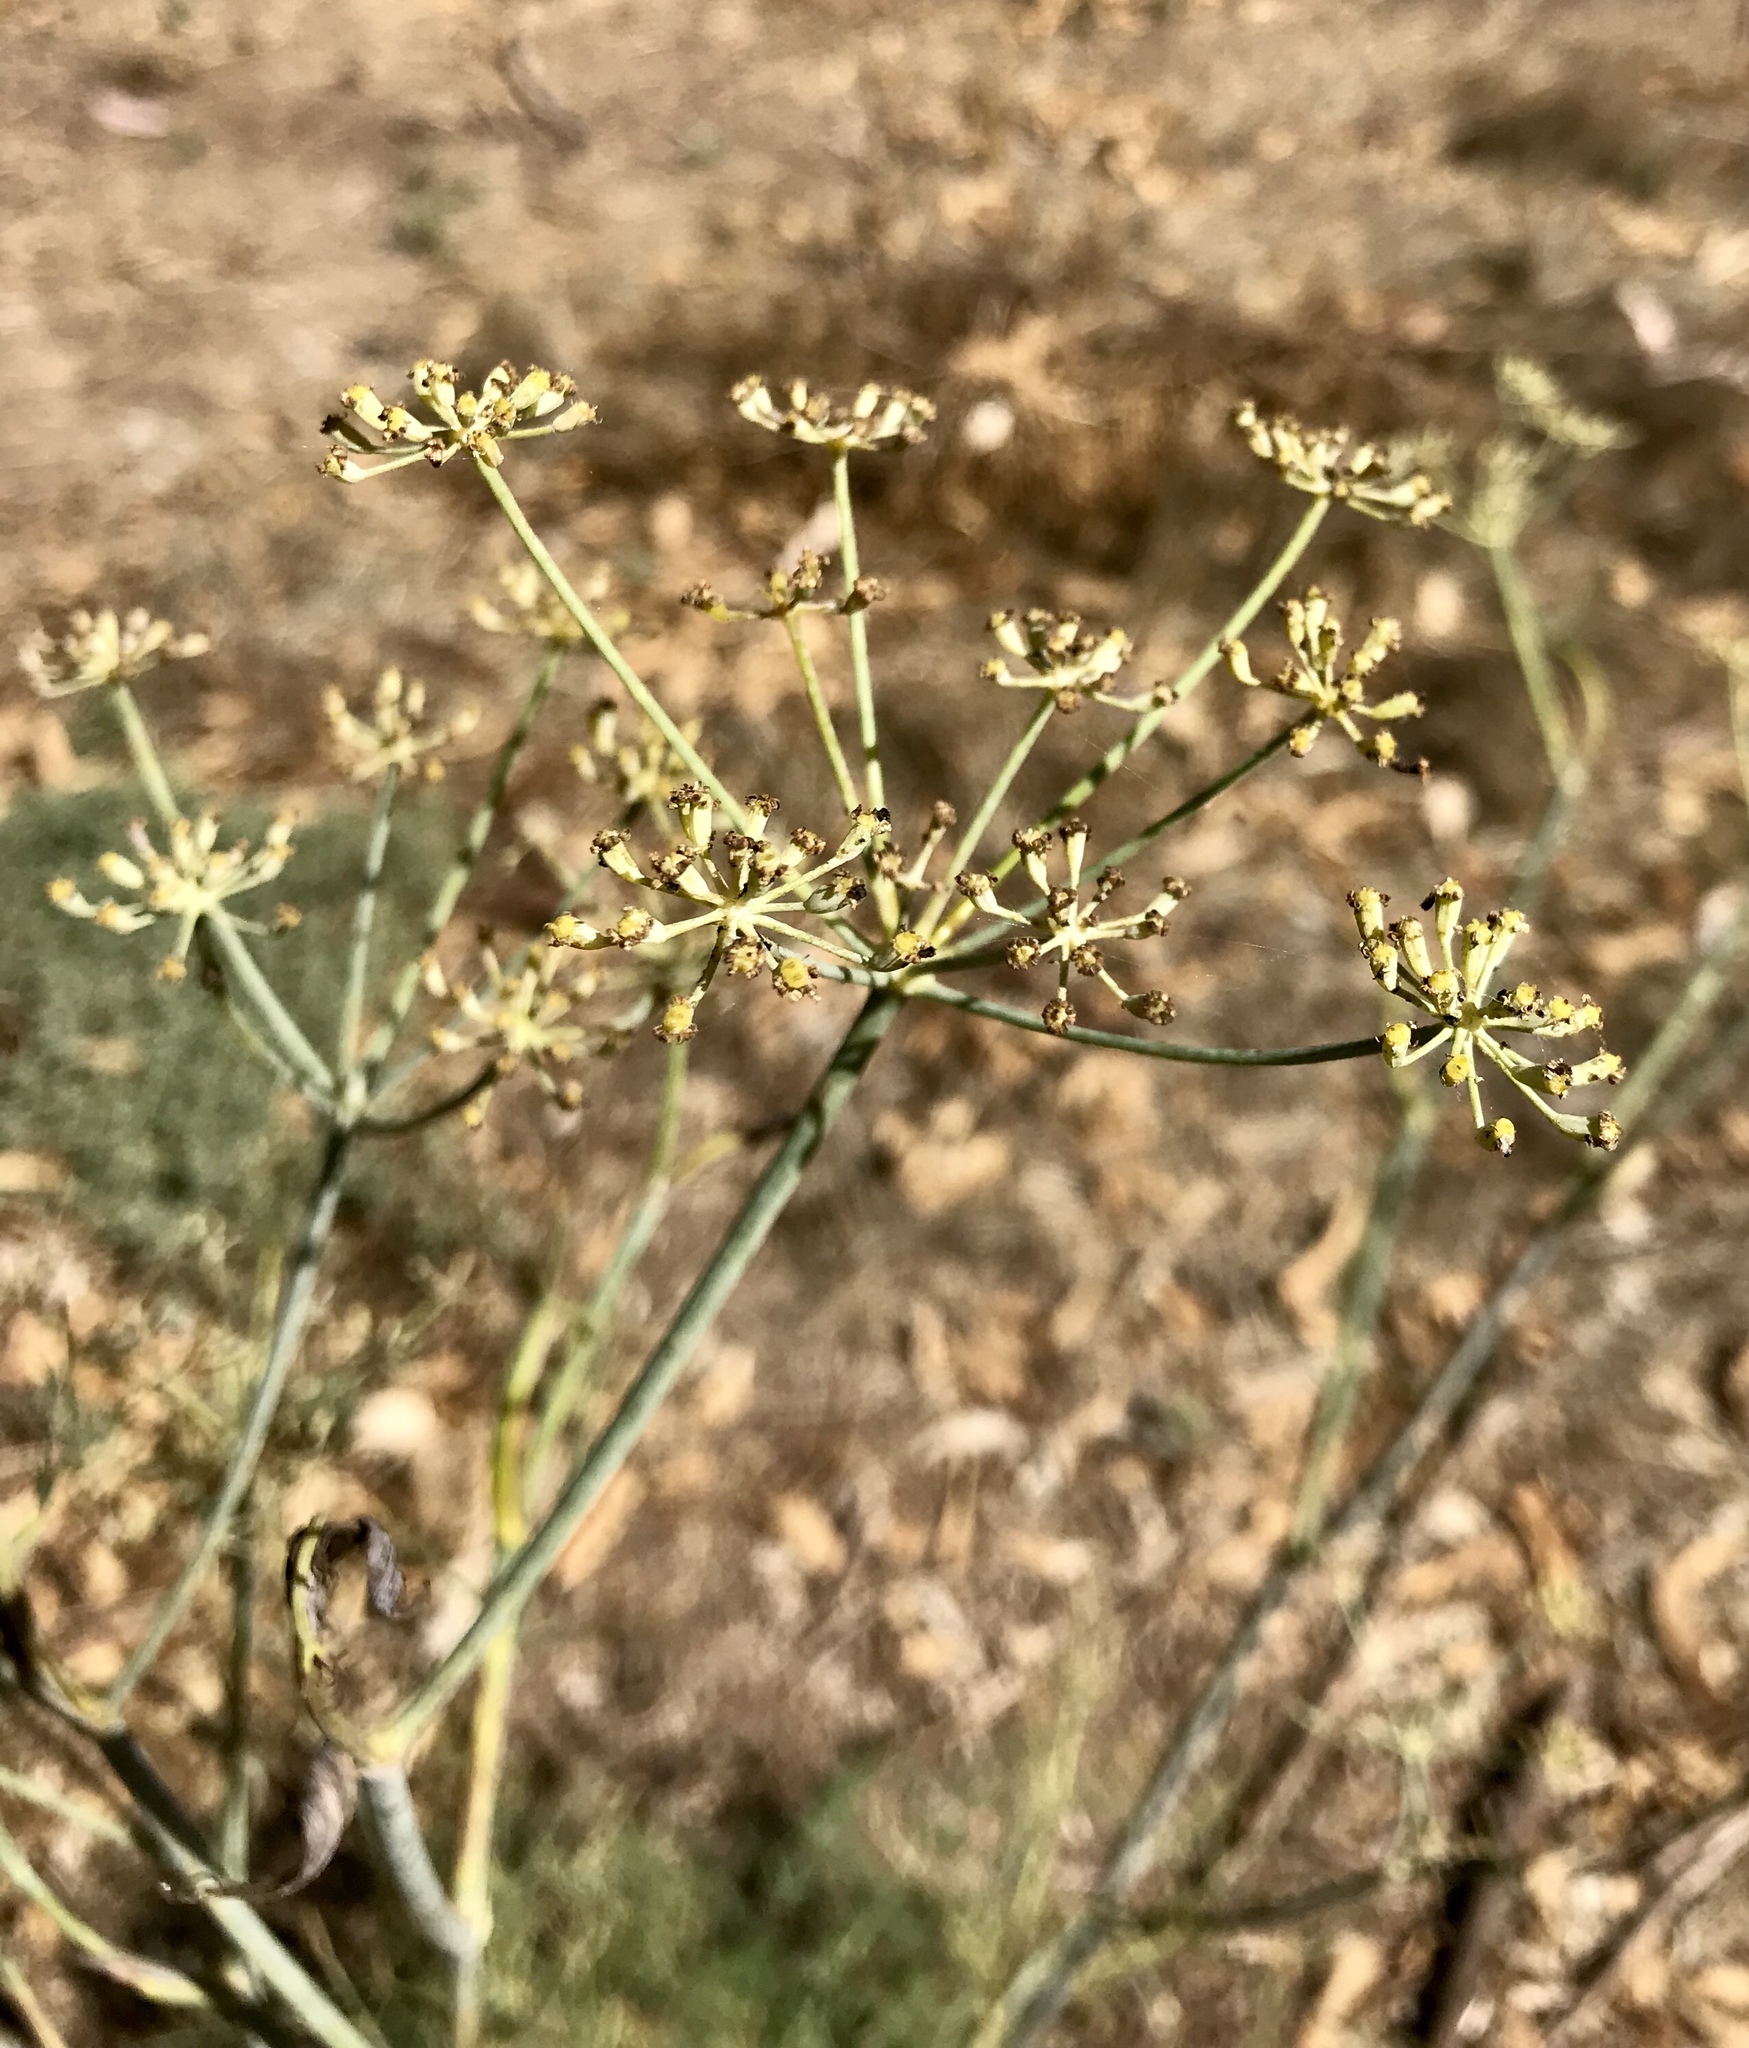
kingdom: Plantae
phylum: Tracheophyta
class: Magnoliopsida
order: Apiales
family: Apiaceae
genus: Foeniculum
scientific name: Foeniculum vulgare
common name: Fennel
